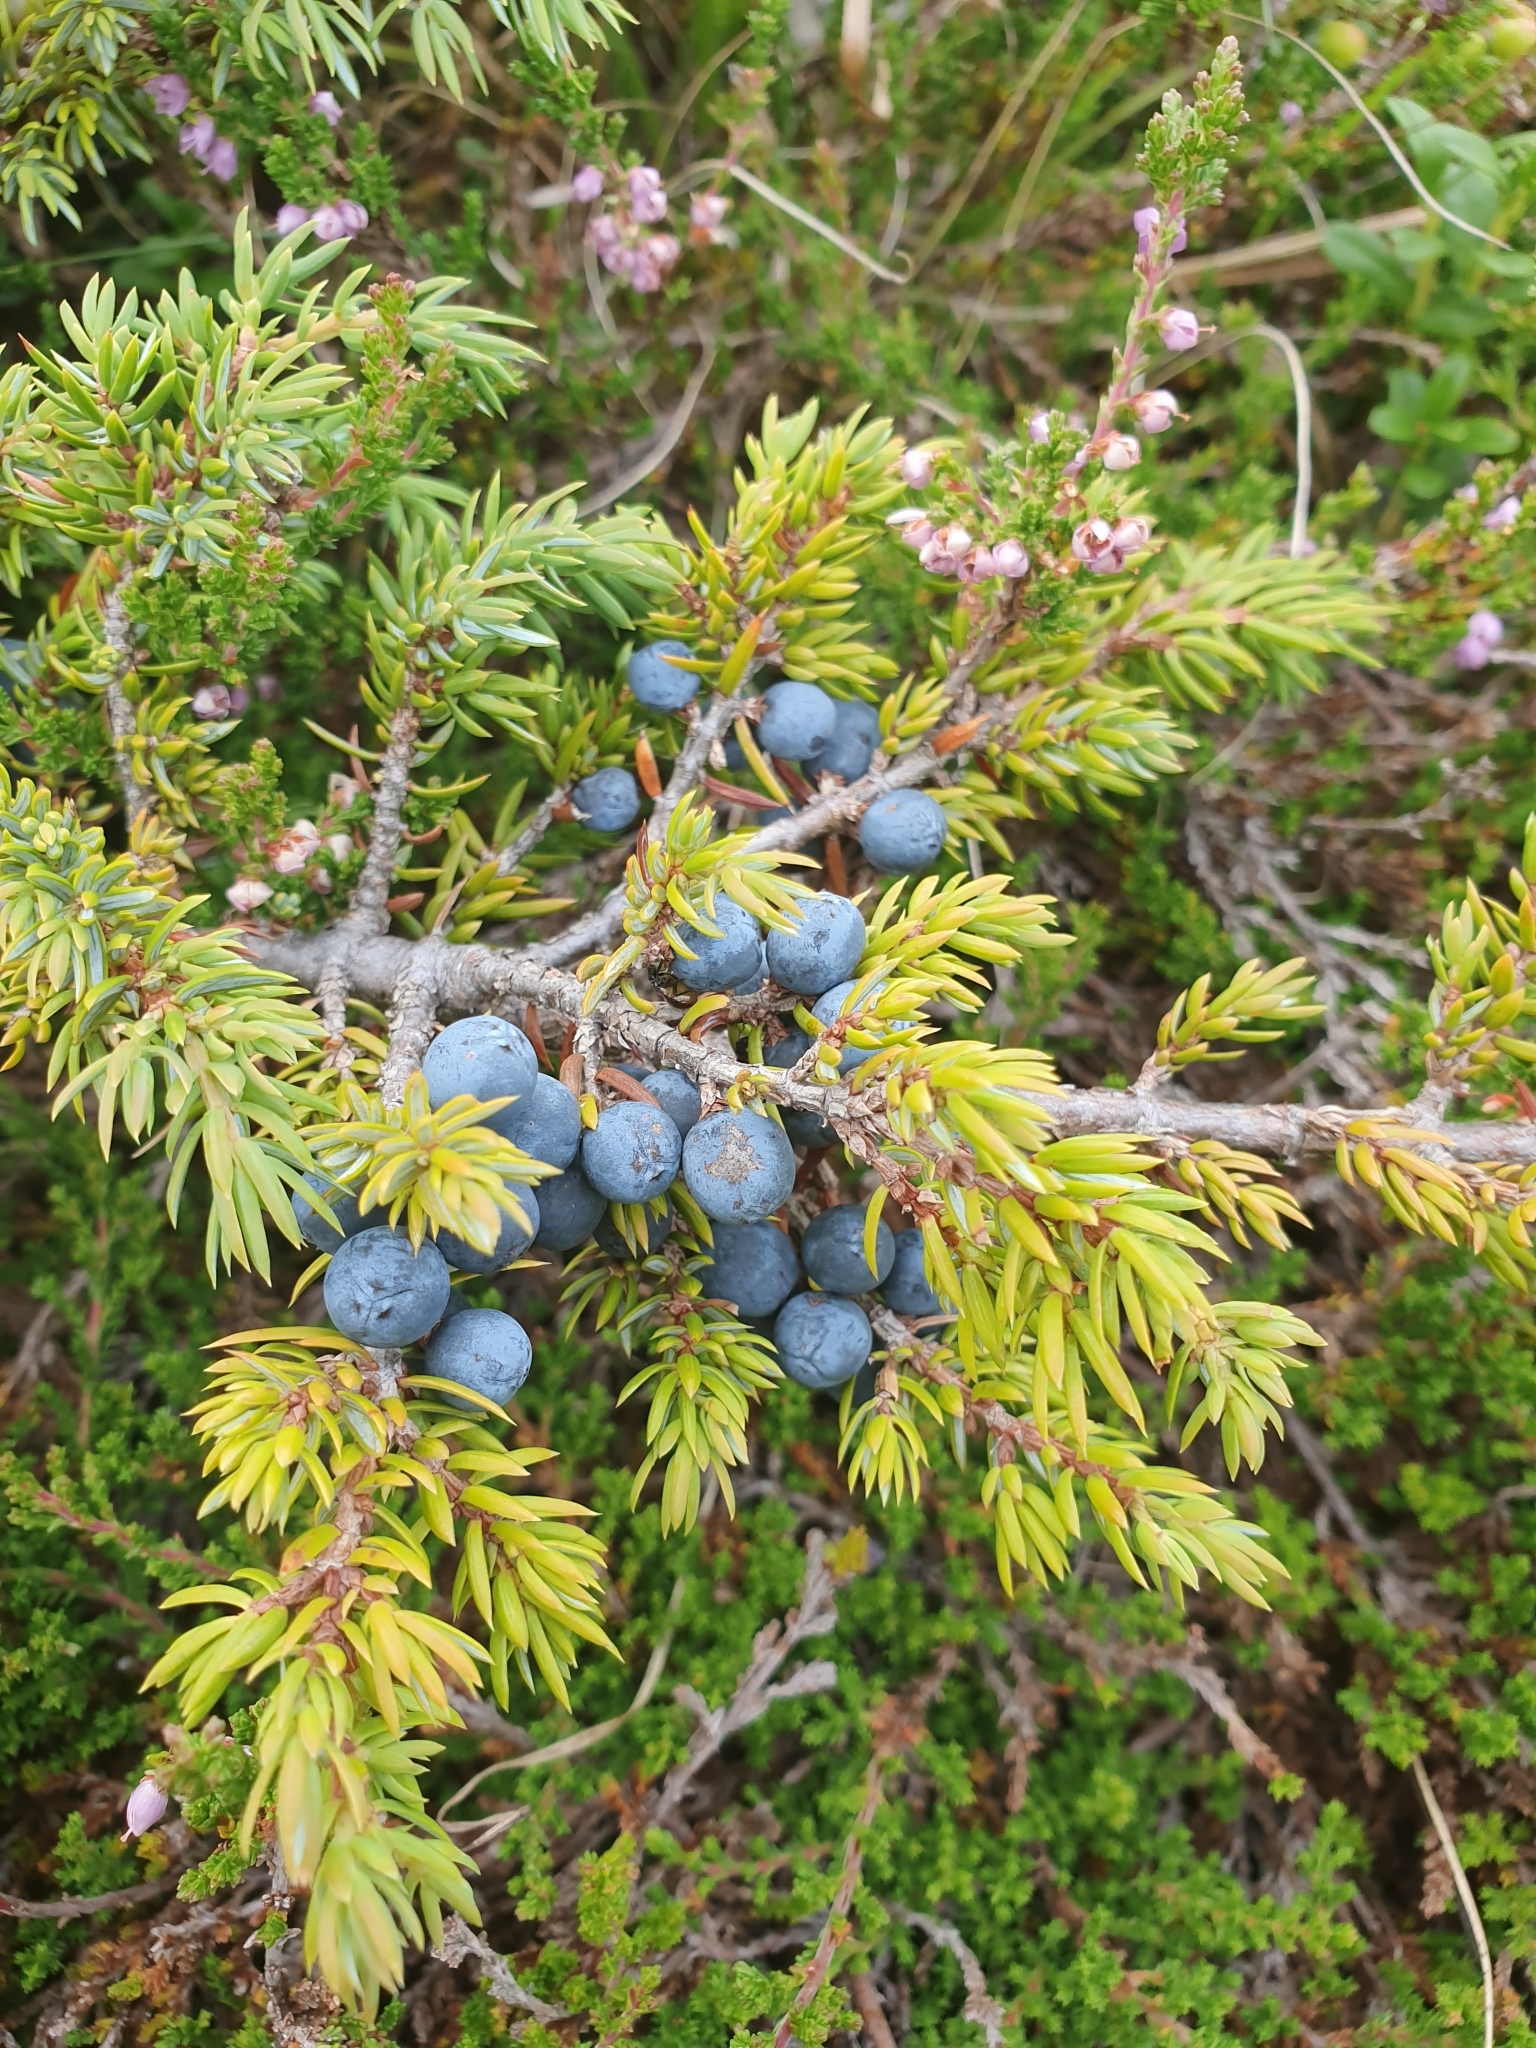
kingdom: Plantae
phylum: Tracheophyta
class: Pinopsida
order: Pinales
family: Cupressaceae
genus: Juniperus
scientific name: Juniperus communis
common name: Common juniper
